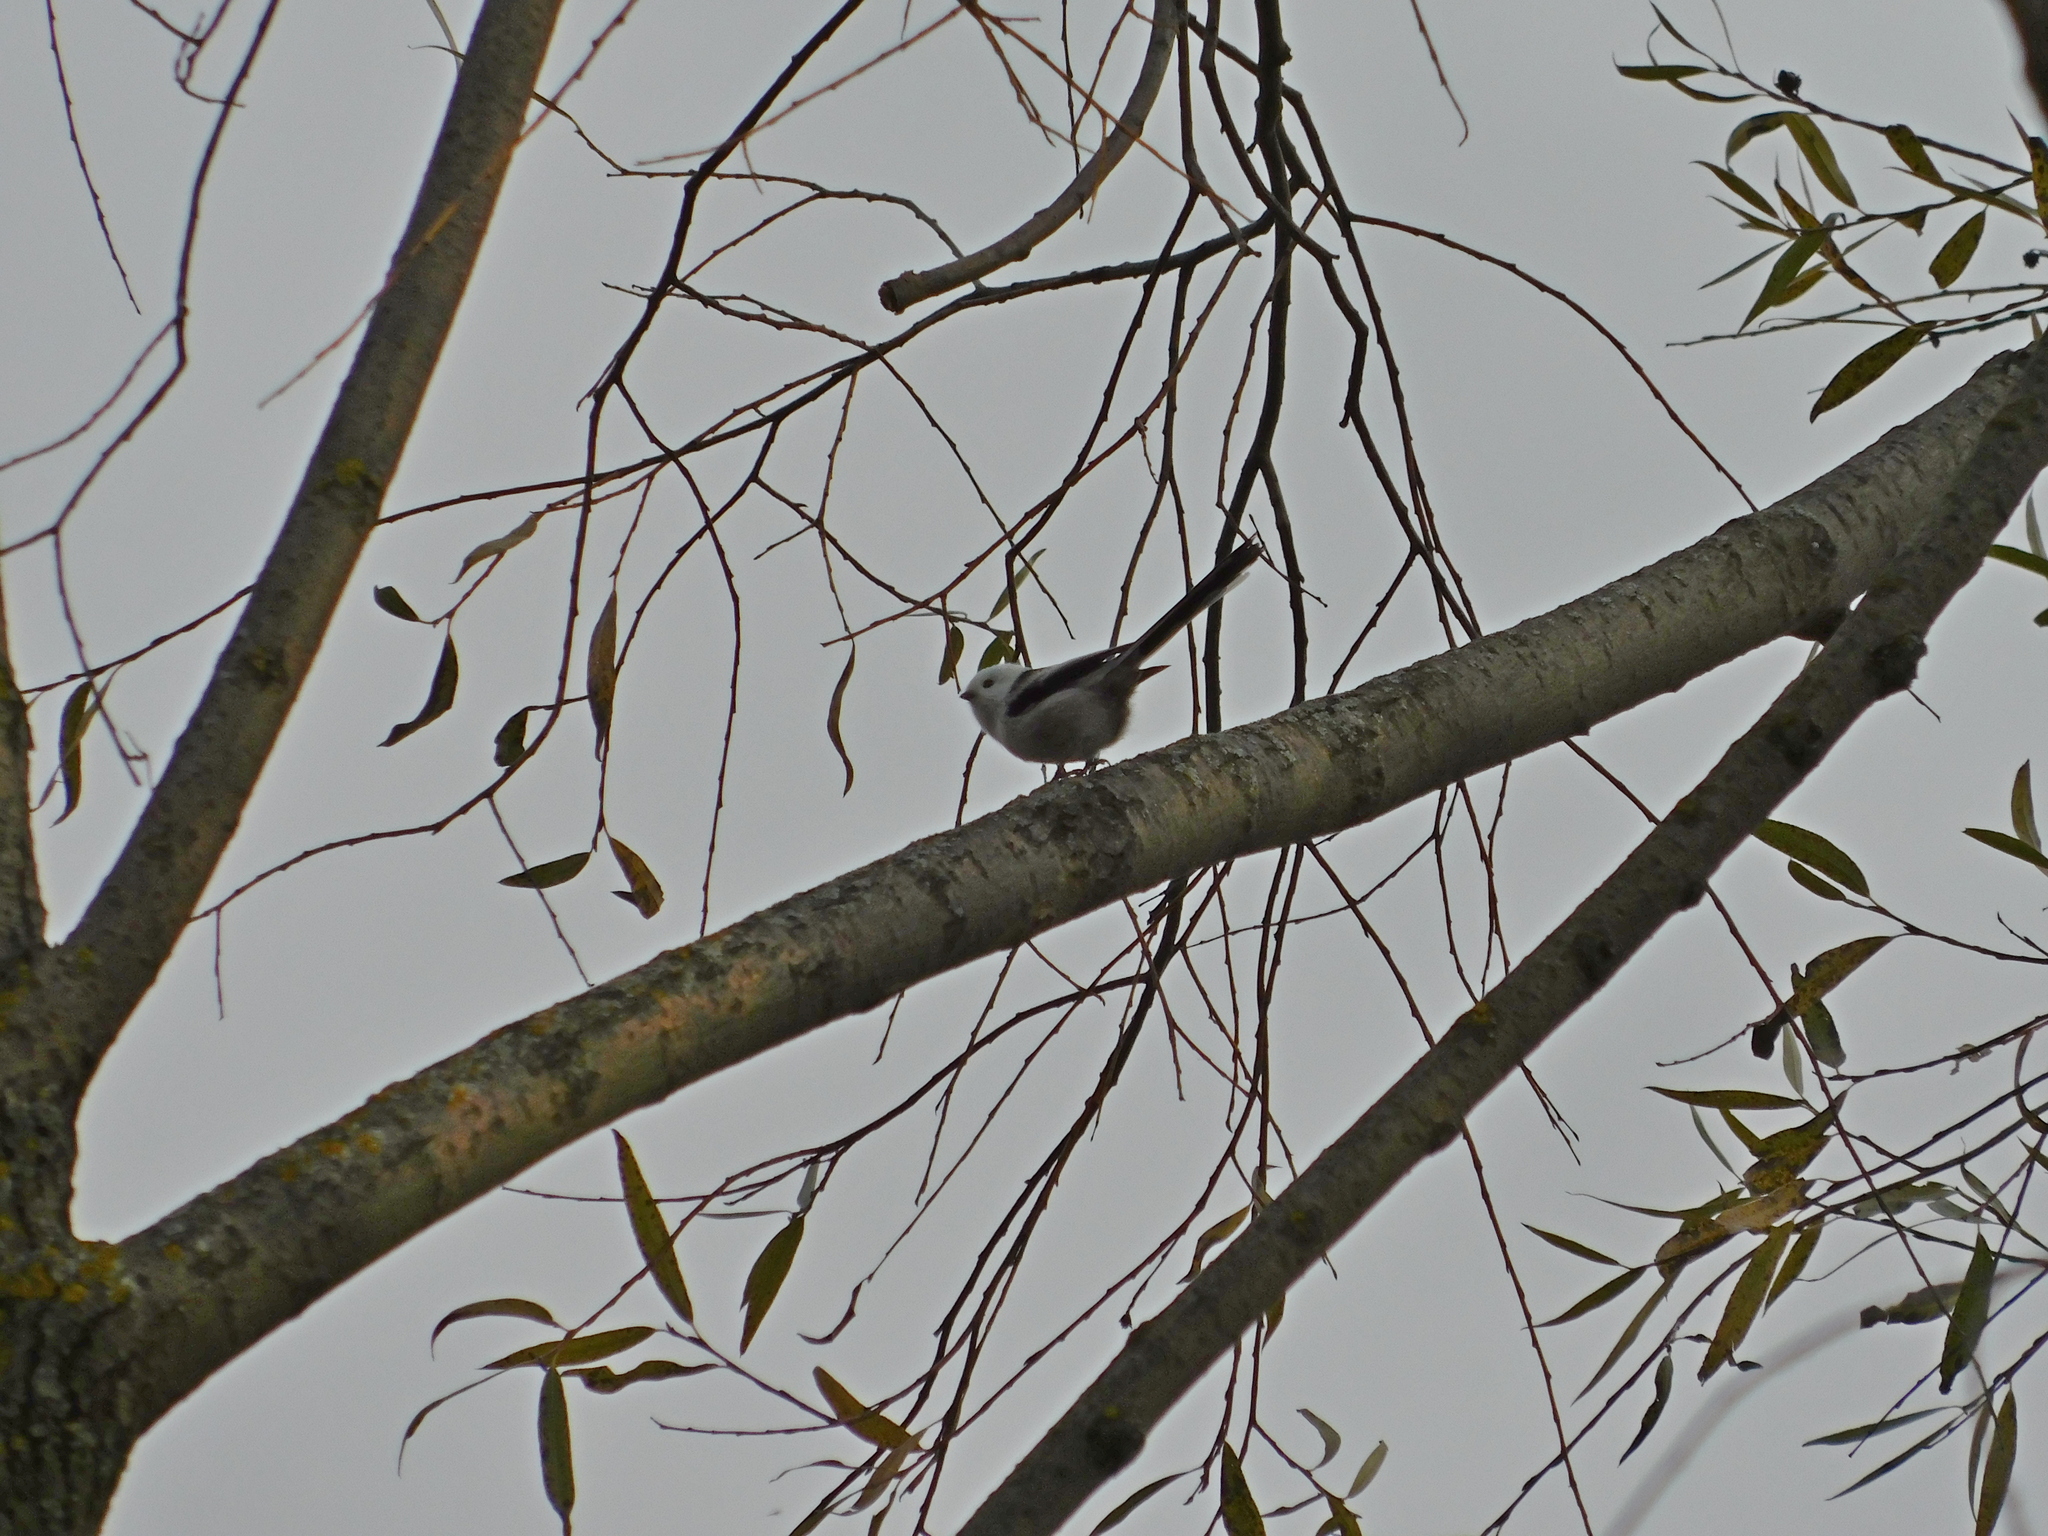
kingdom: Animalia
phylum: Chordata
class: Aves
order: Passeriformes
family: Aegithalidae
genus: Aegithalos
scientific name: Aegithalos caudatus
